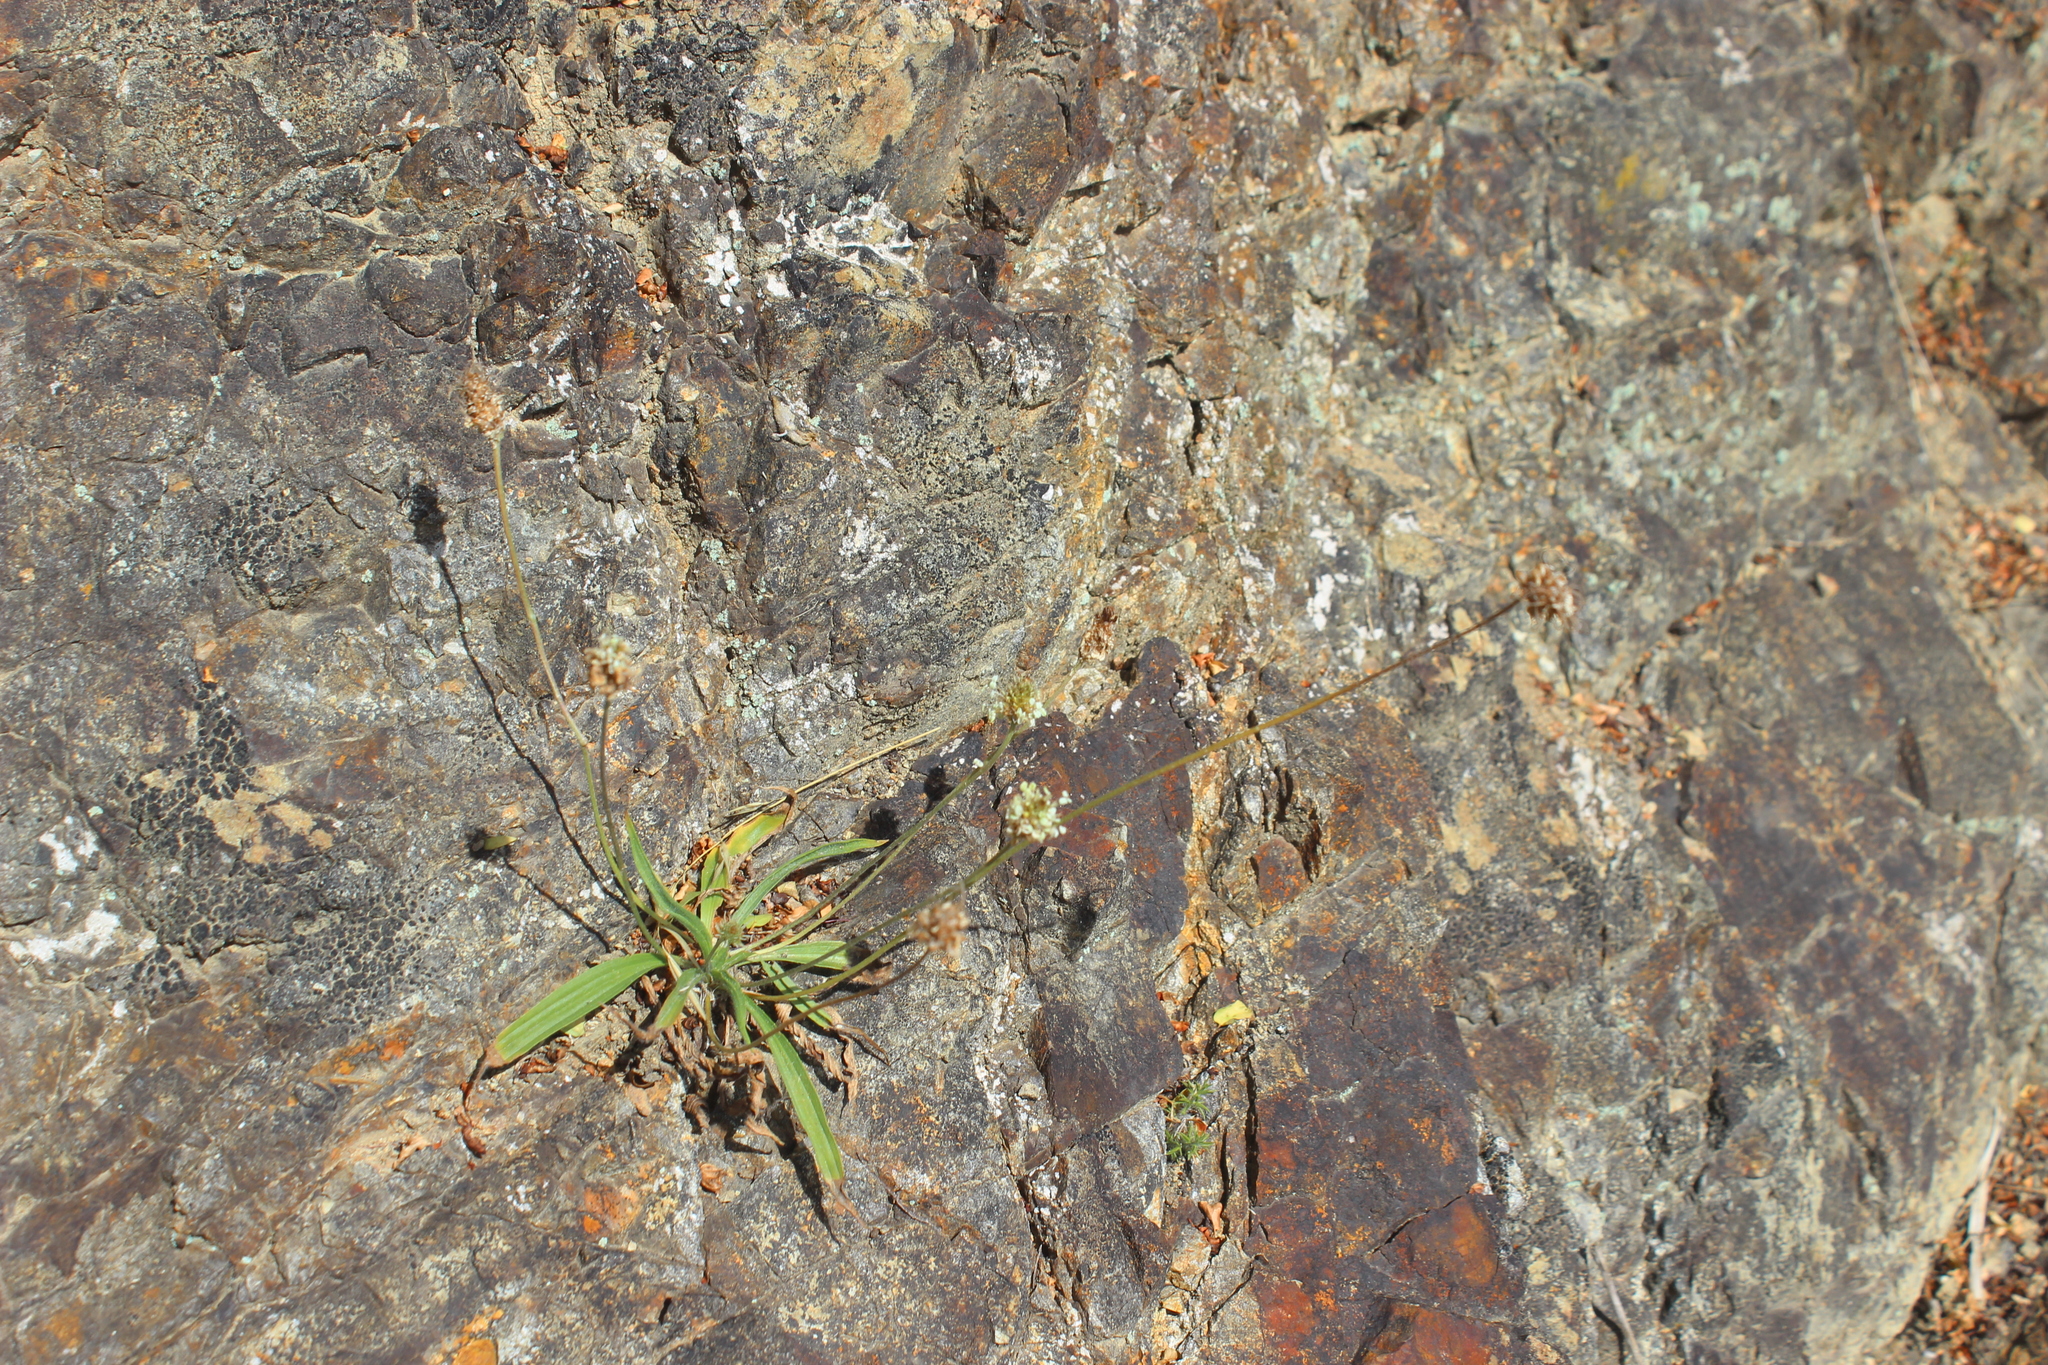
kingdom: Plantae
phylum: Tracheophyta
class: Magnoliopsida
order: Lamiales
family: Plantaginaceae
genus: Plantago
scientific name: Plantago lanceolata
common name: Ribwort plantain
